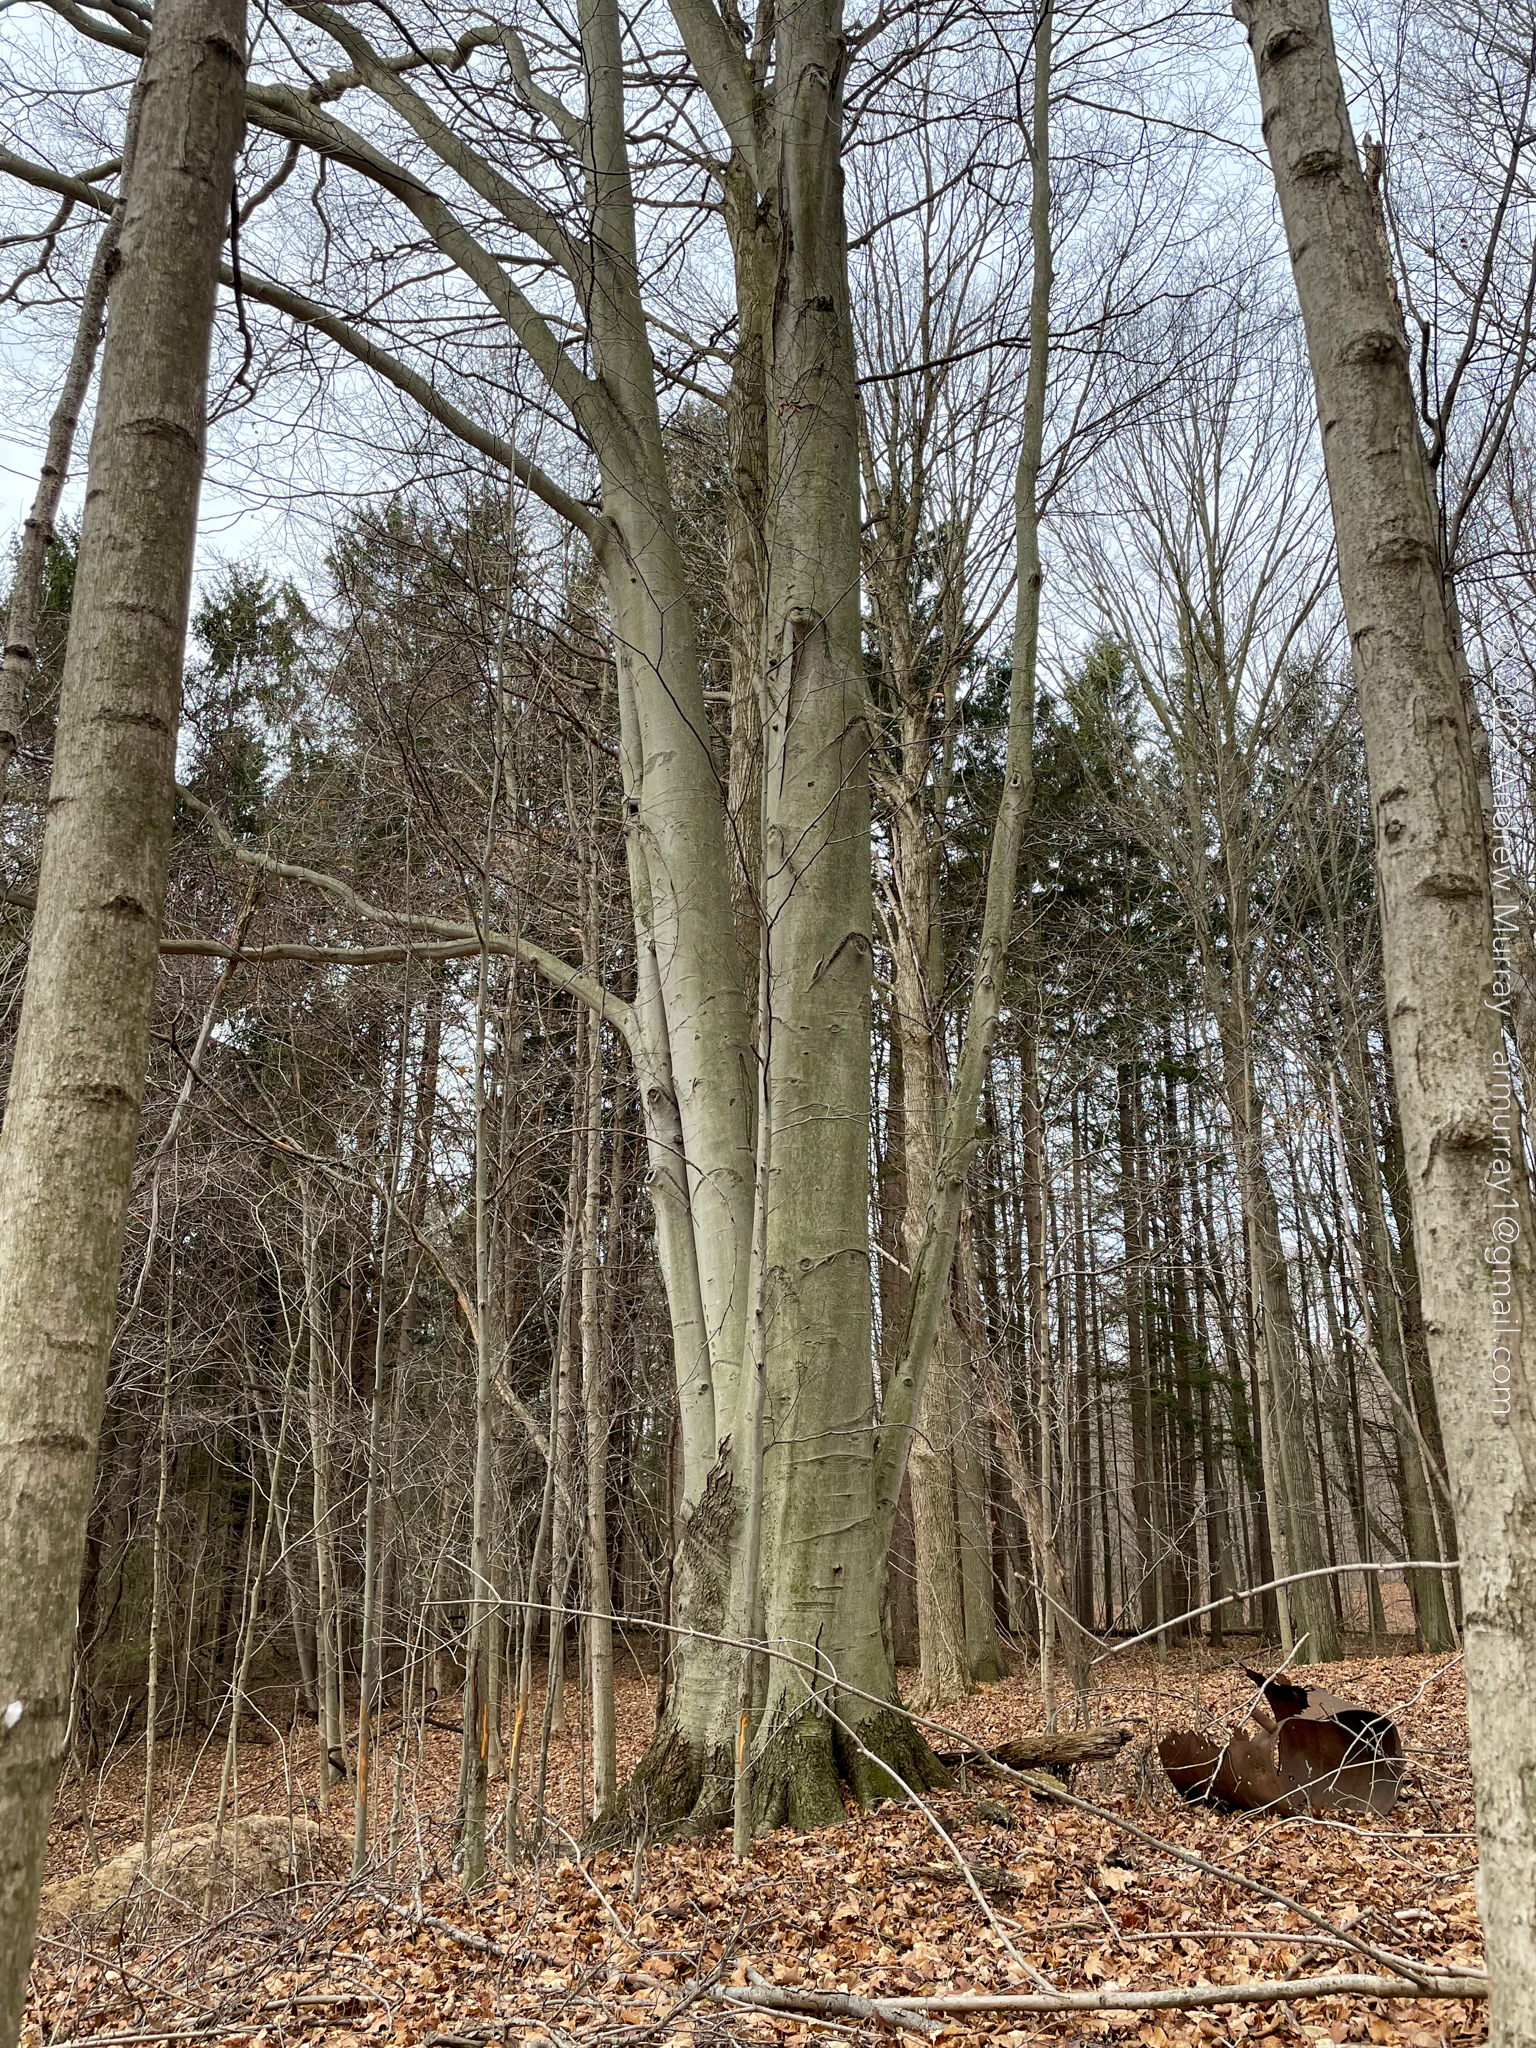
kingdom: Plantae
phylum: Tracheophyta
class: Magnoliopsida
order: Fagales
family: Fagaceae
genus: Fagus
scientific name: Fagus grandifolia
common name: American beech
